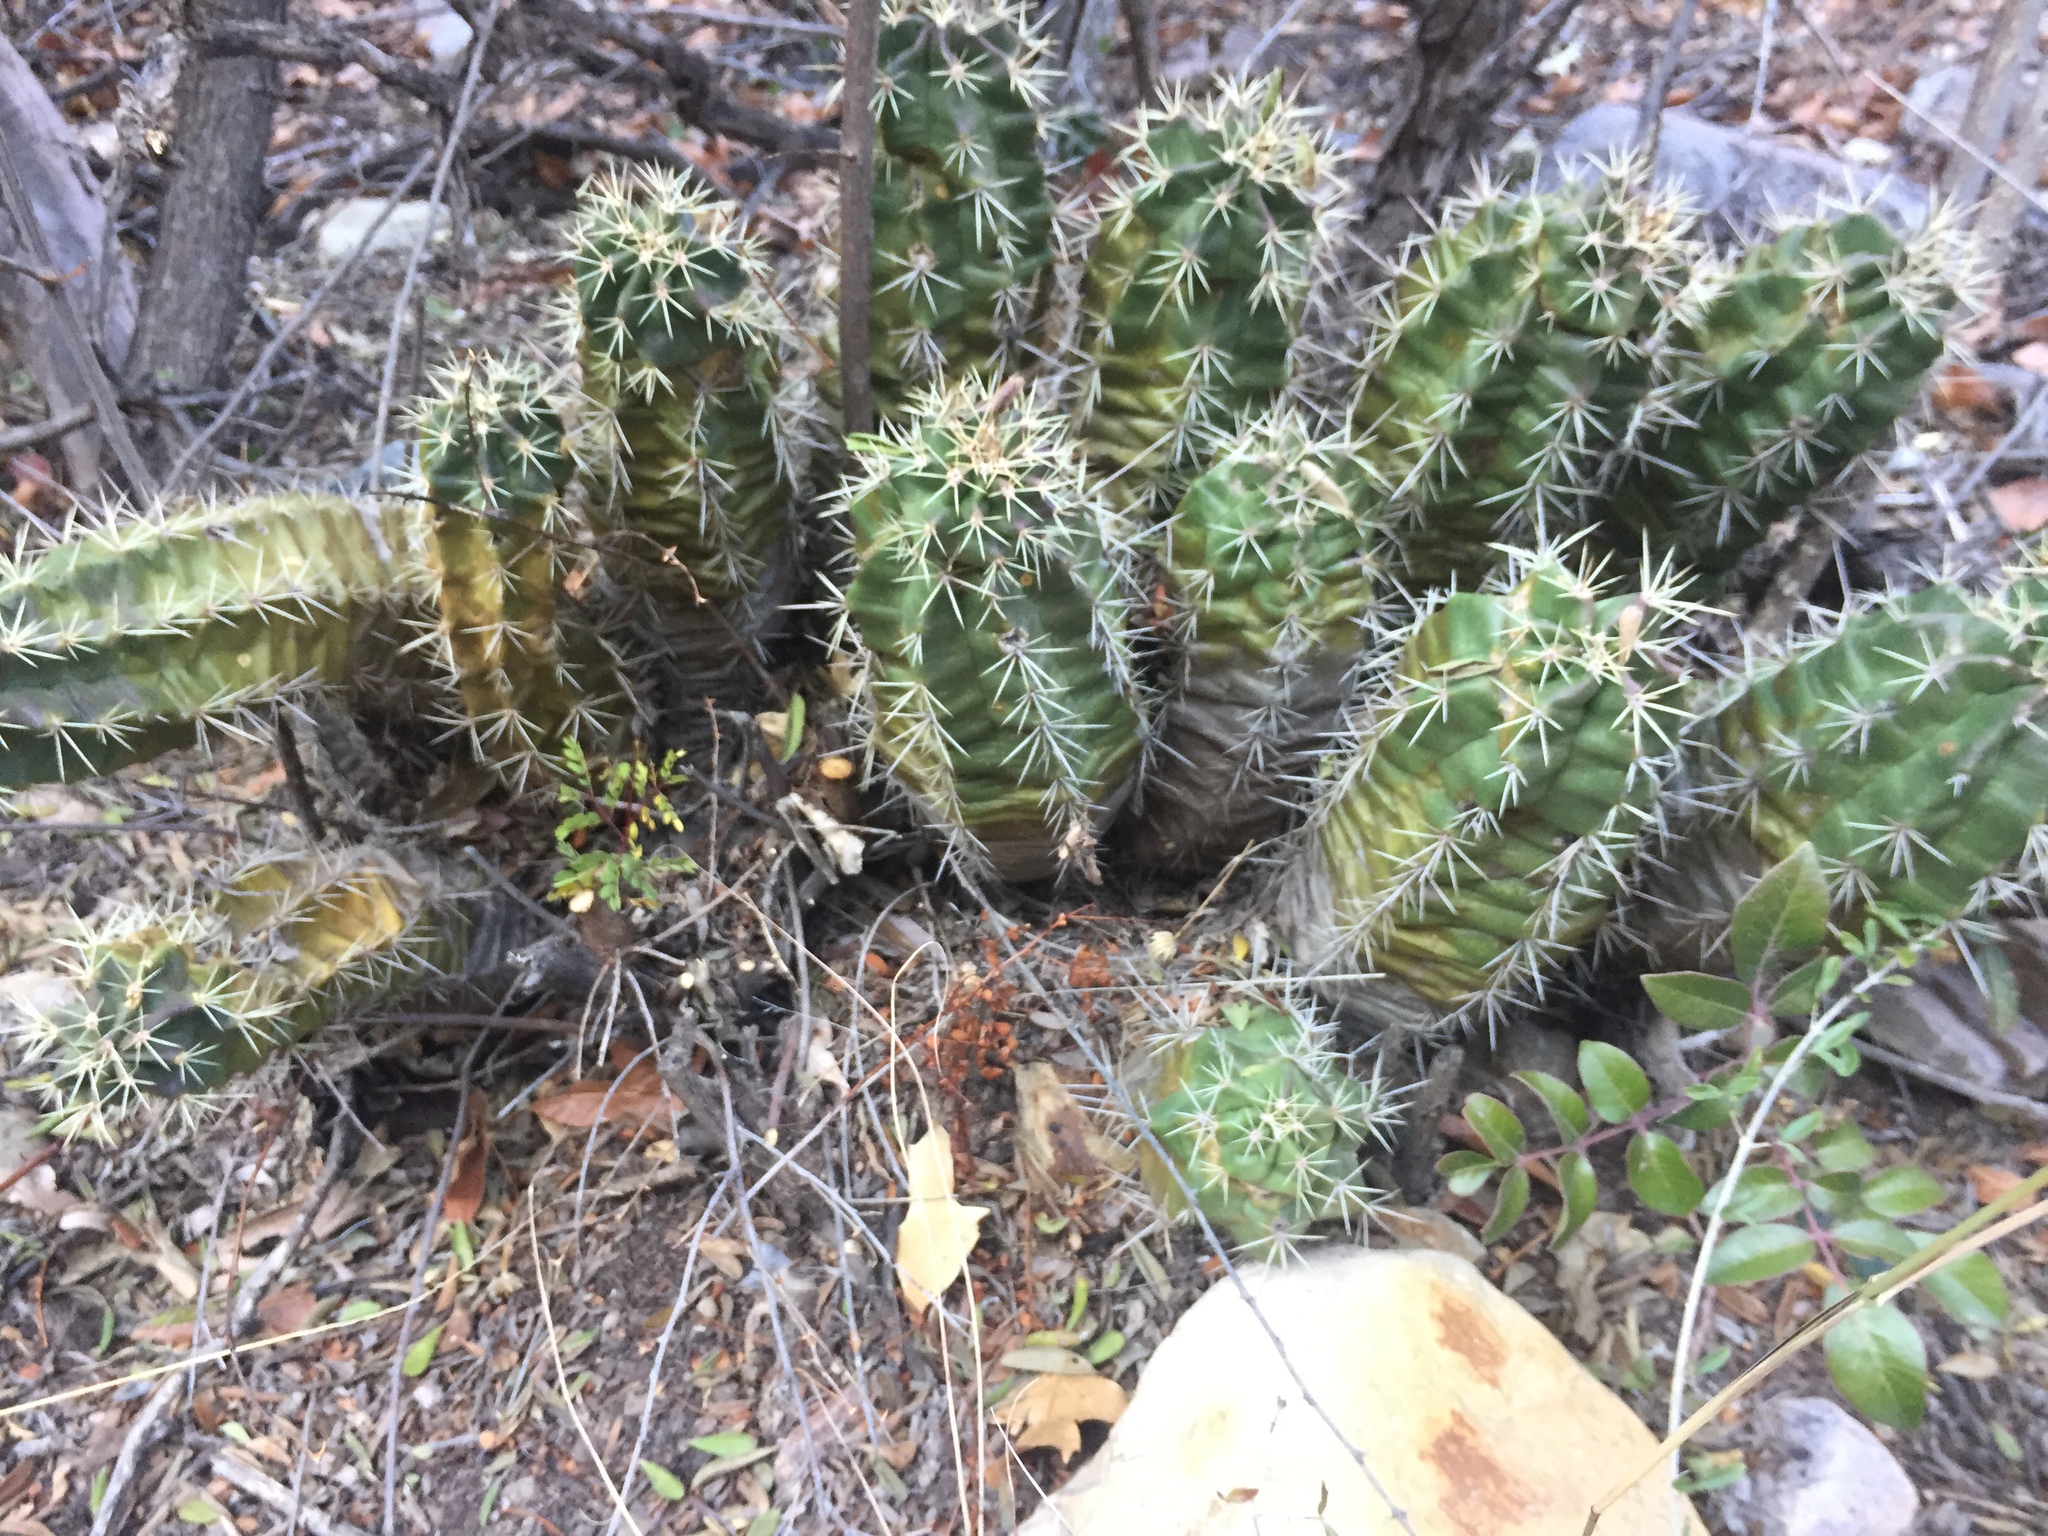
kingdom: Plantae
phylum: Tracheophyta
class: Magnoliopsida
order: Caryophyllales
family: Cactaceae
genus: Echinocereus
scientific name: Echinocereus coccineus
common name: Scarlet hedgehog cactus
